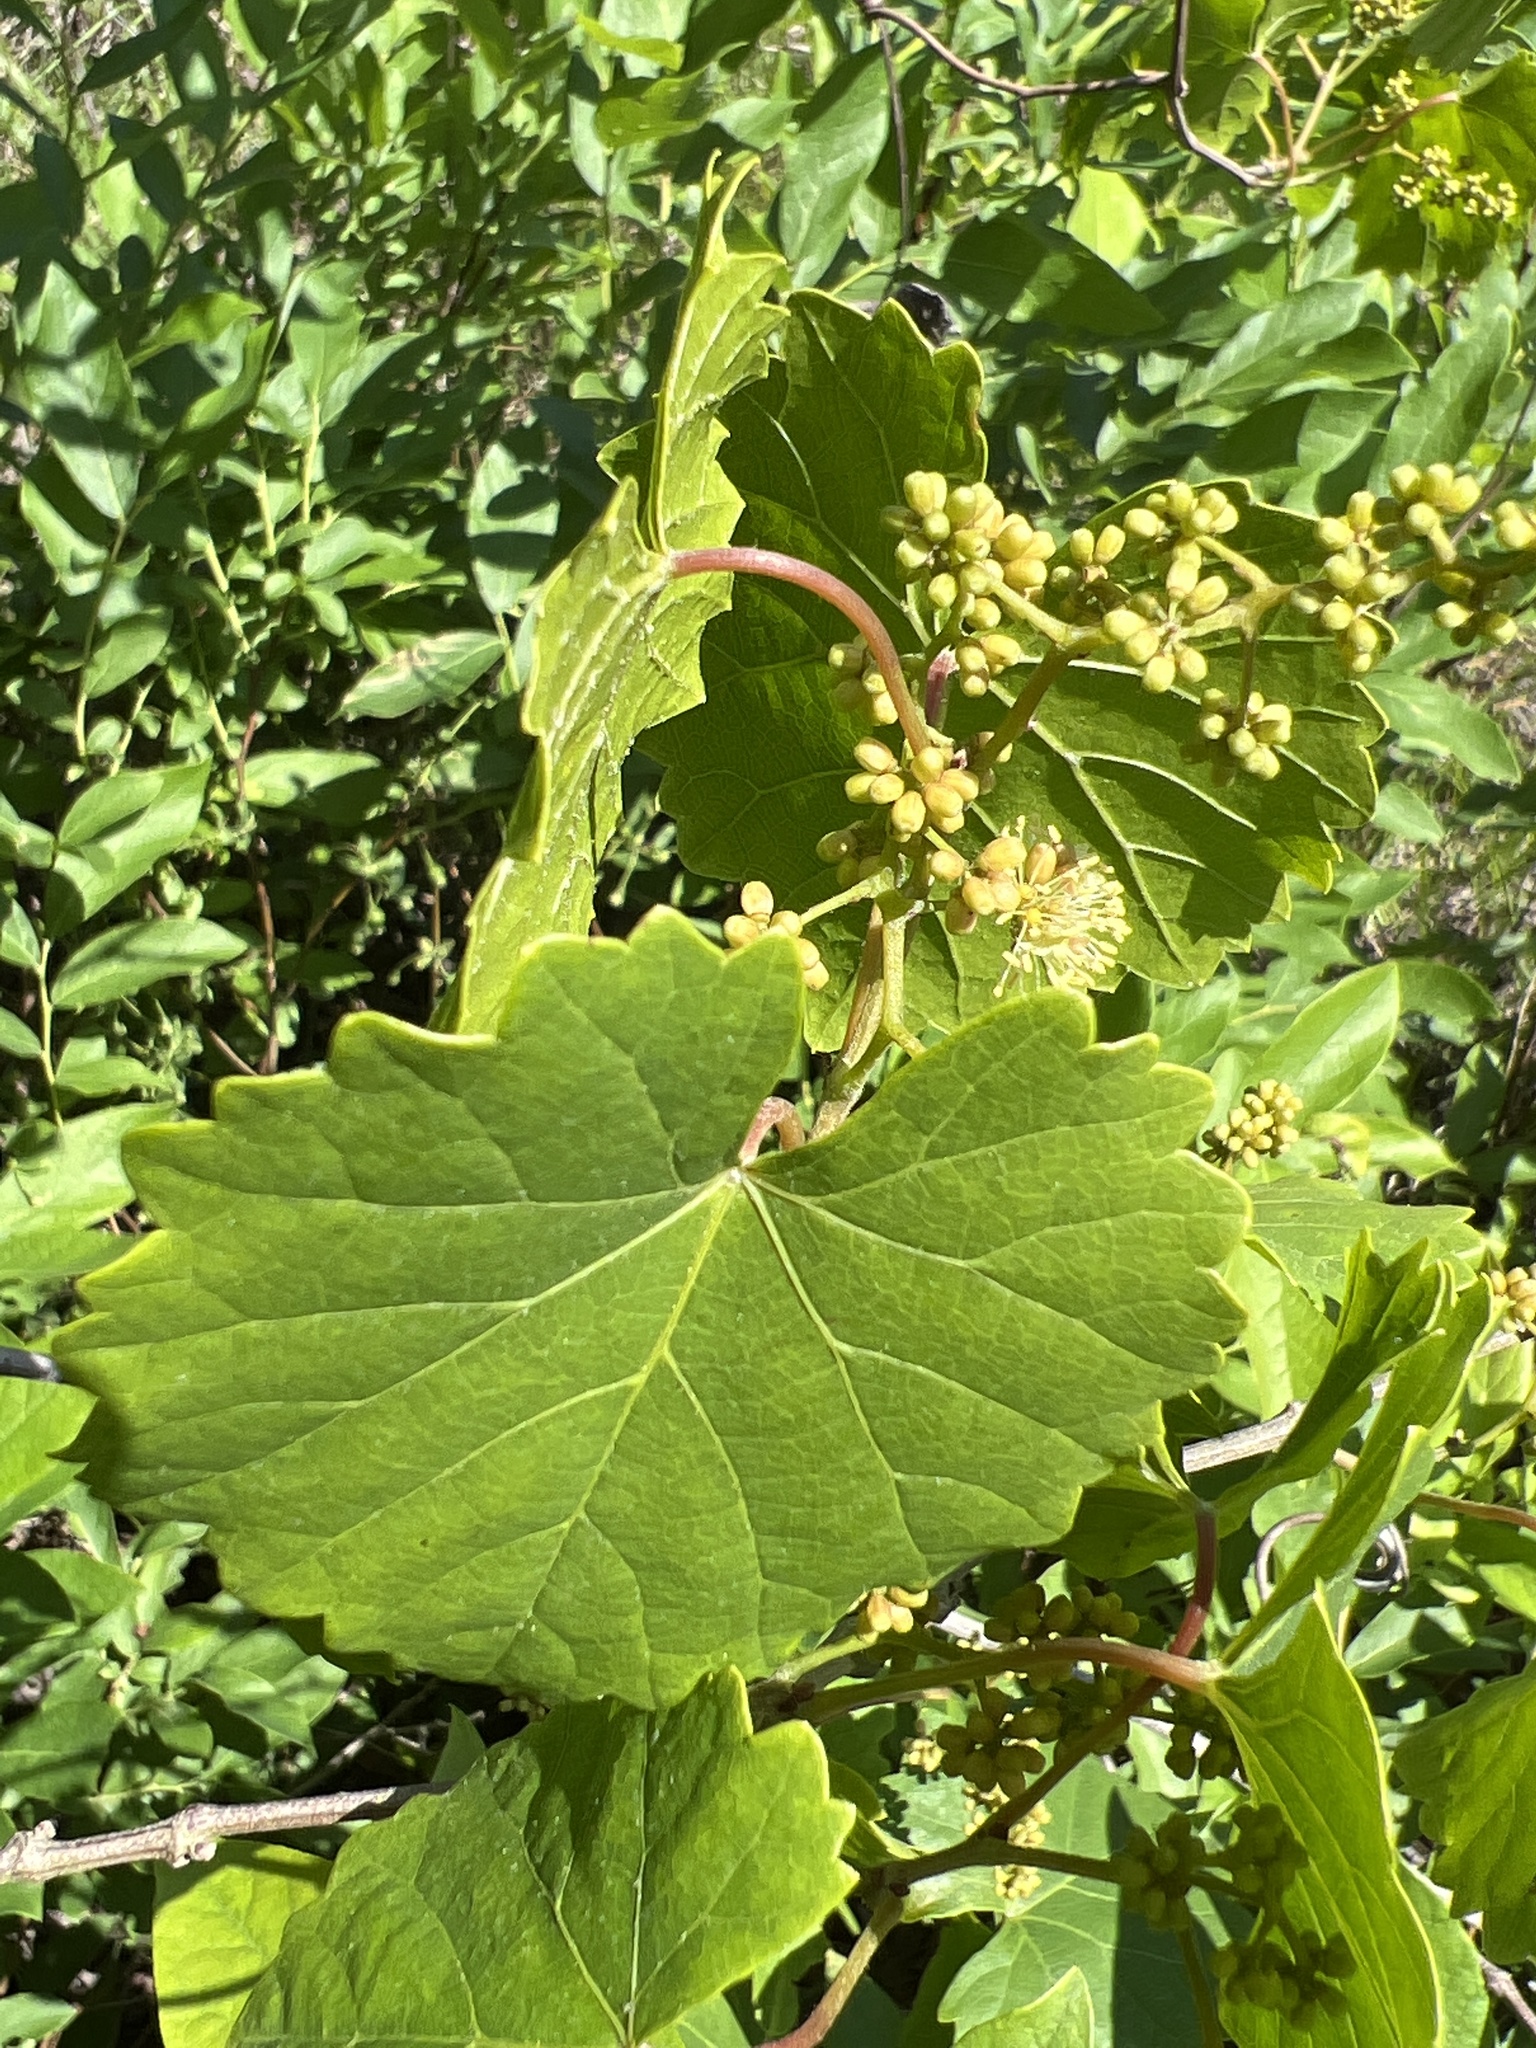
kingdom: Plantae
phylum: Tracheophyta
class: Magnoliopsida
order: Vitales
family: Vitaceae
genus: Vitis
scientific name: Vitis rotundifolia
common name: Muscadine grape
